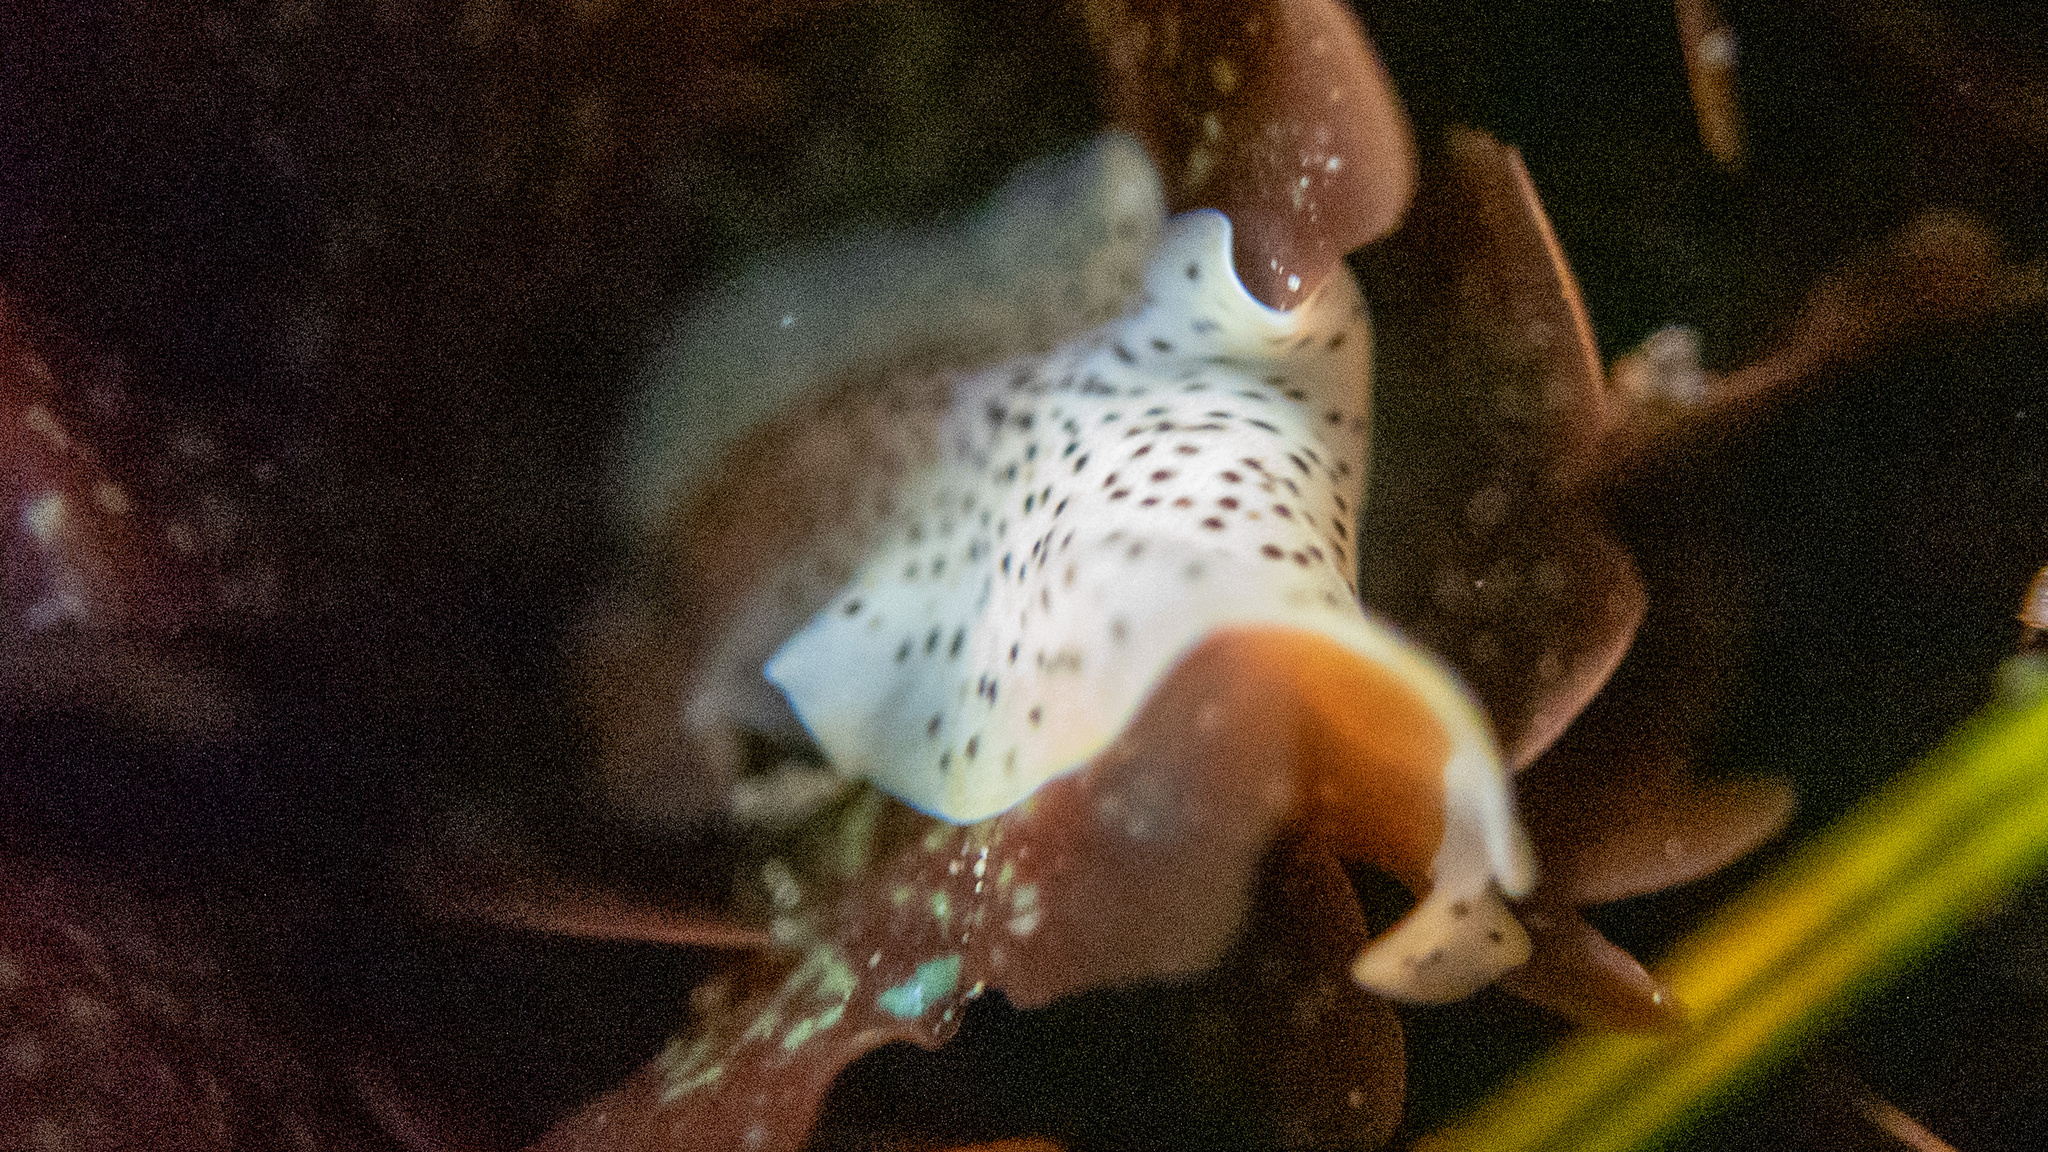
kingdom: Animalia
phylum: Platyhelminthes
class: Turbellaria
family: Prosthiostomidae
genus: Enchiridium
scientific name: Enchiridium punctatum
